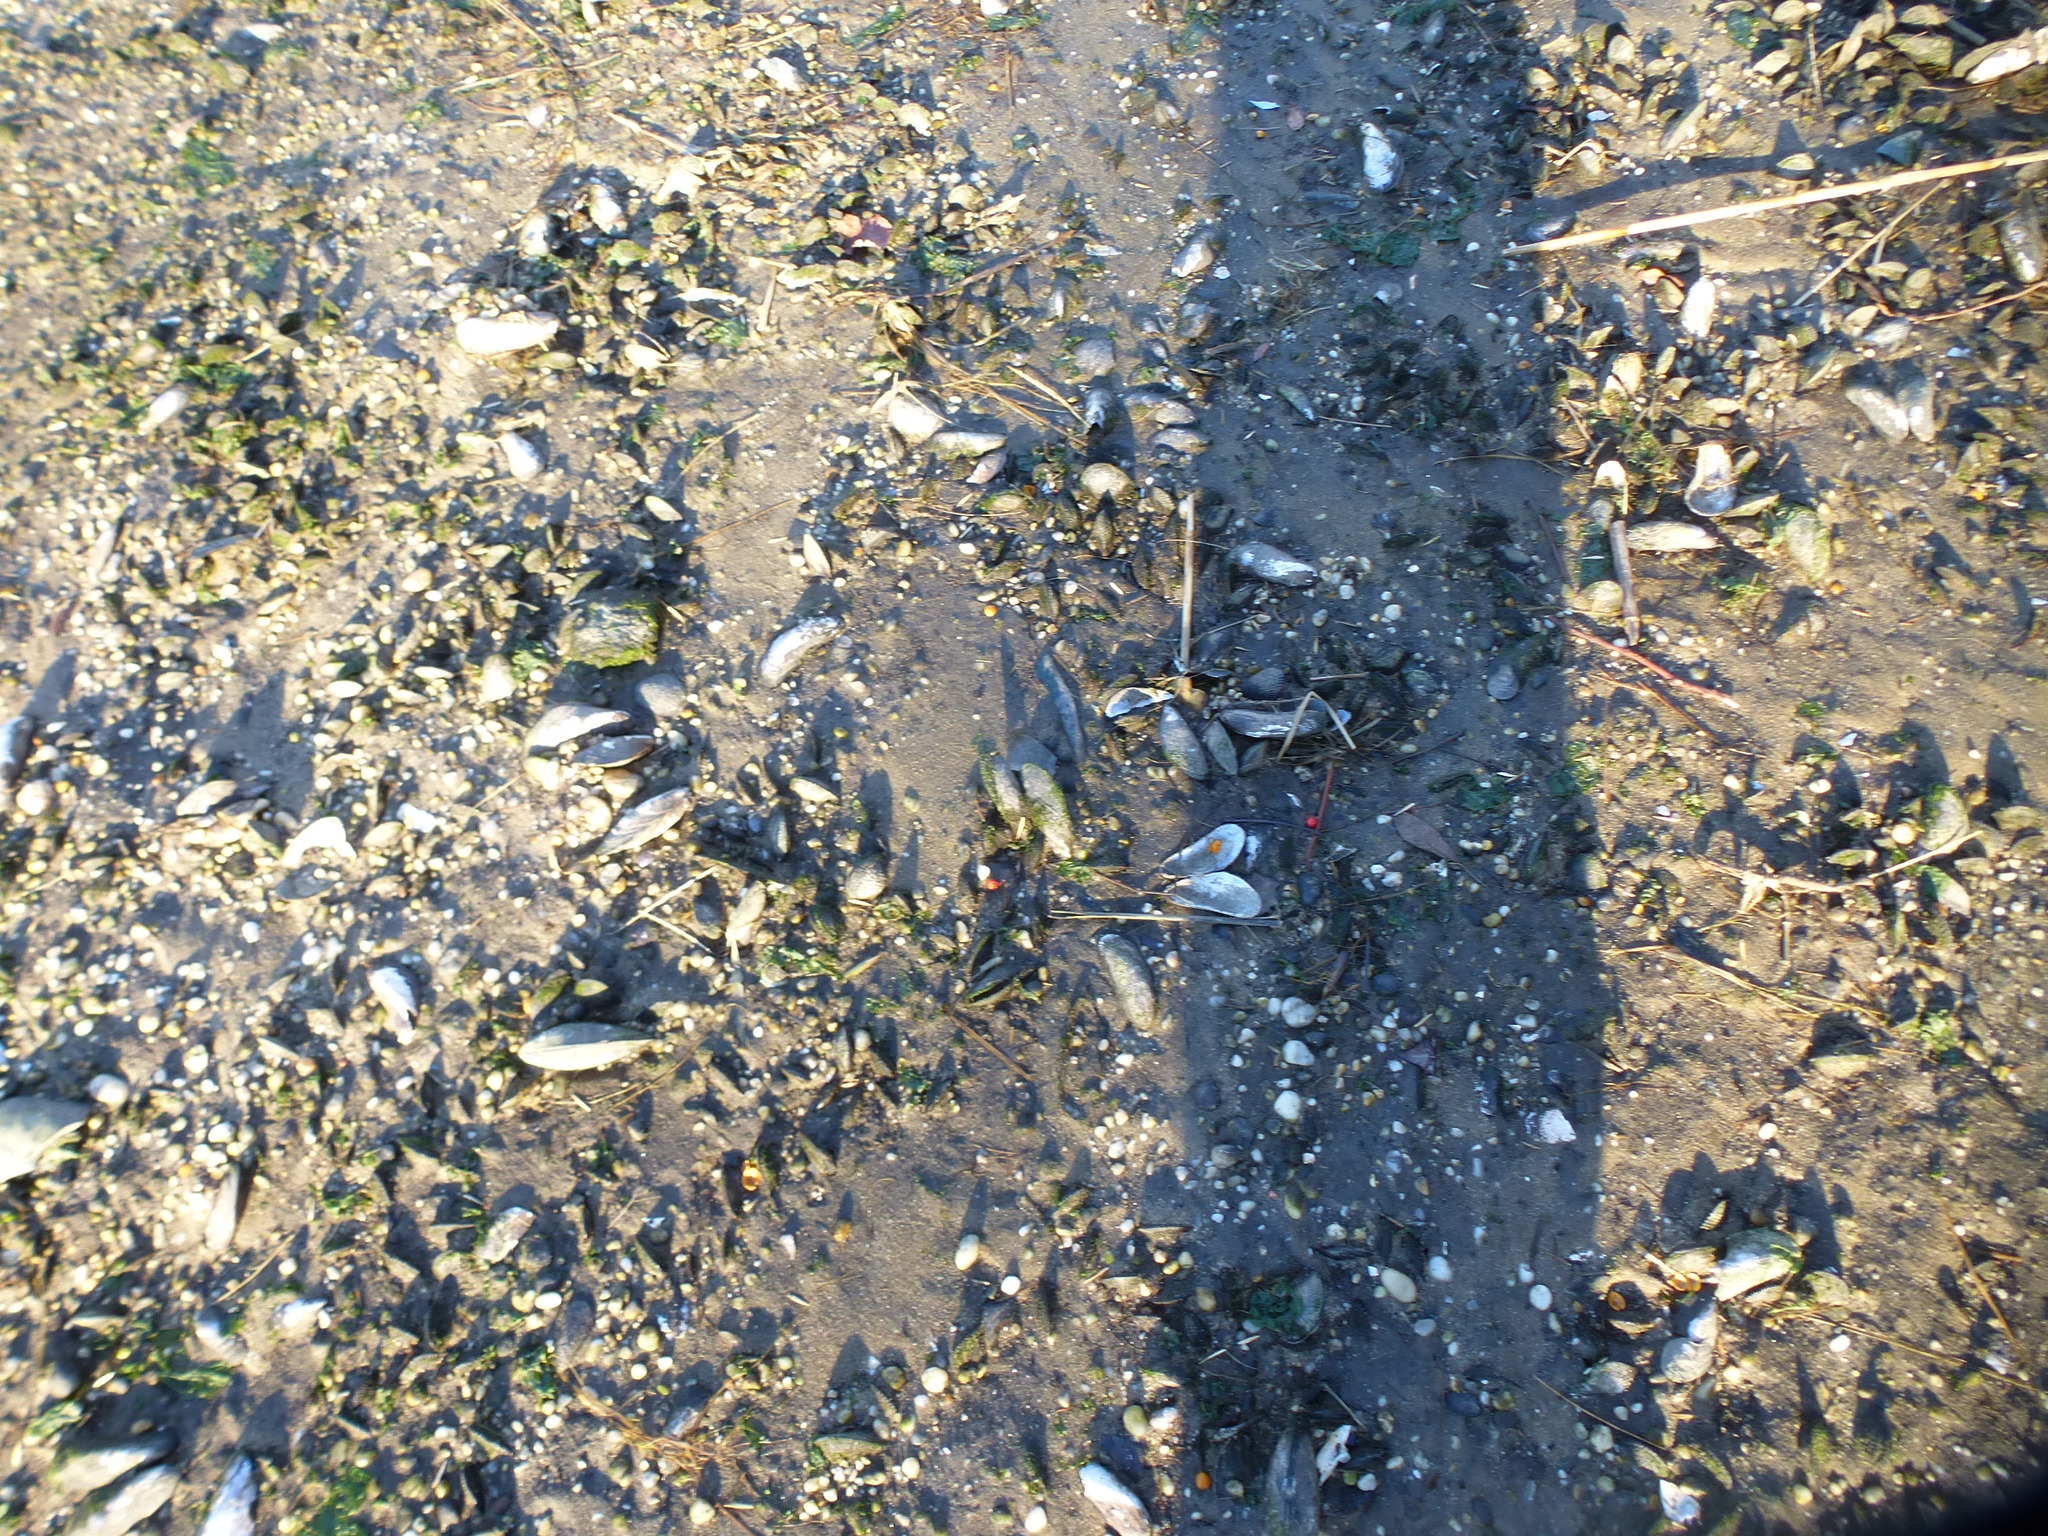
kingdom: Animalia
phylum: Mollusca
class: Bivalvia
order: Mytilida
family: Mytilidae
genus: Geukensia
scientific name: Geukensia demissa
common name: Ribbed mussel
